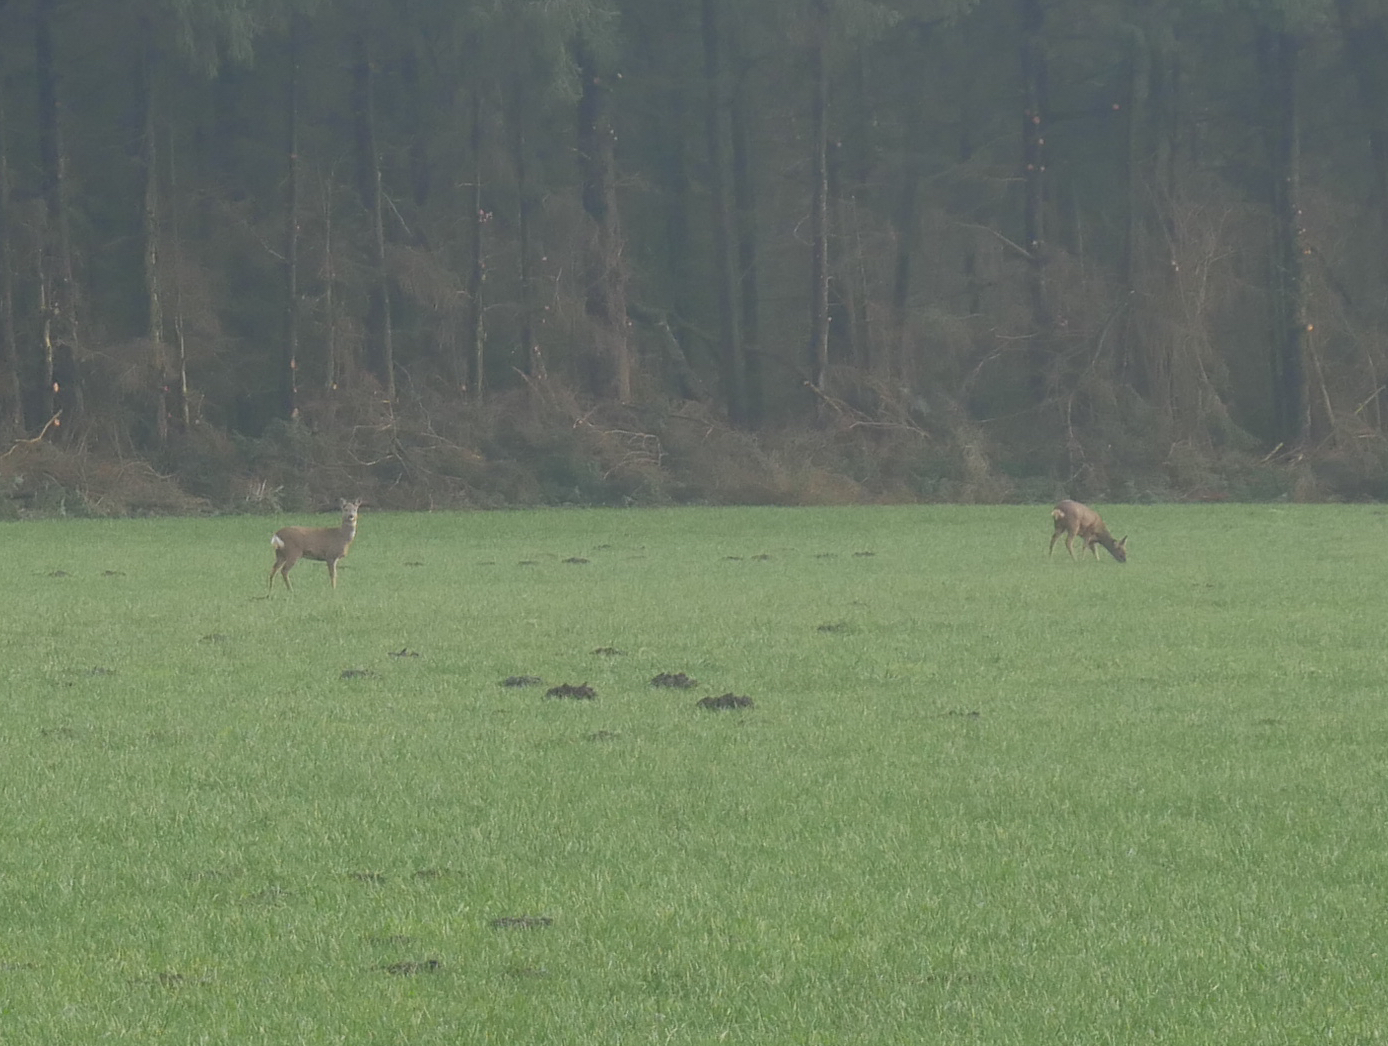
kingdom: Animalia
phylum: Chordata
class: Mammalia
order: Artiodactyla
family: Cervidae
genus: Capreolus
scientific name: Capreolus capreolus
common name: Western roe deer
